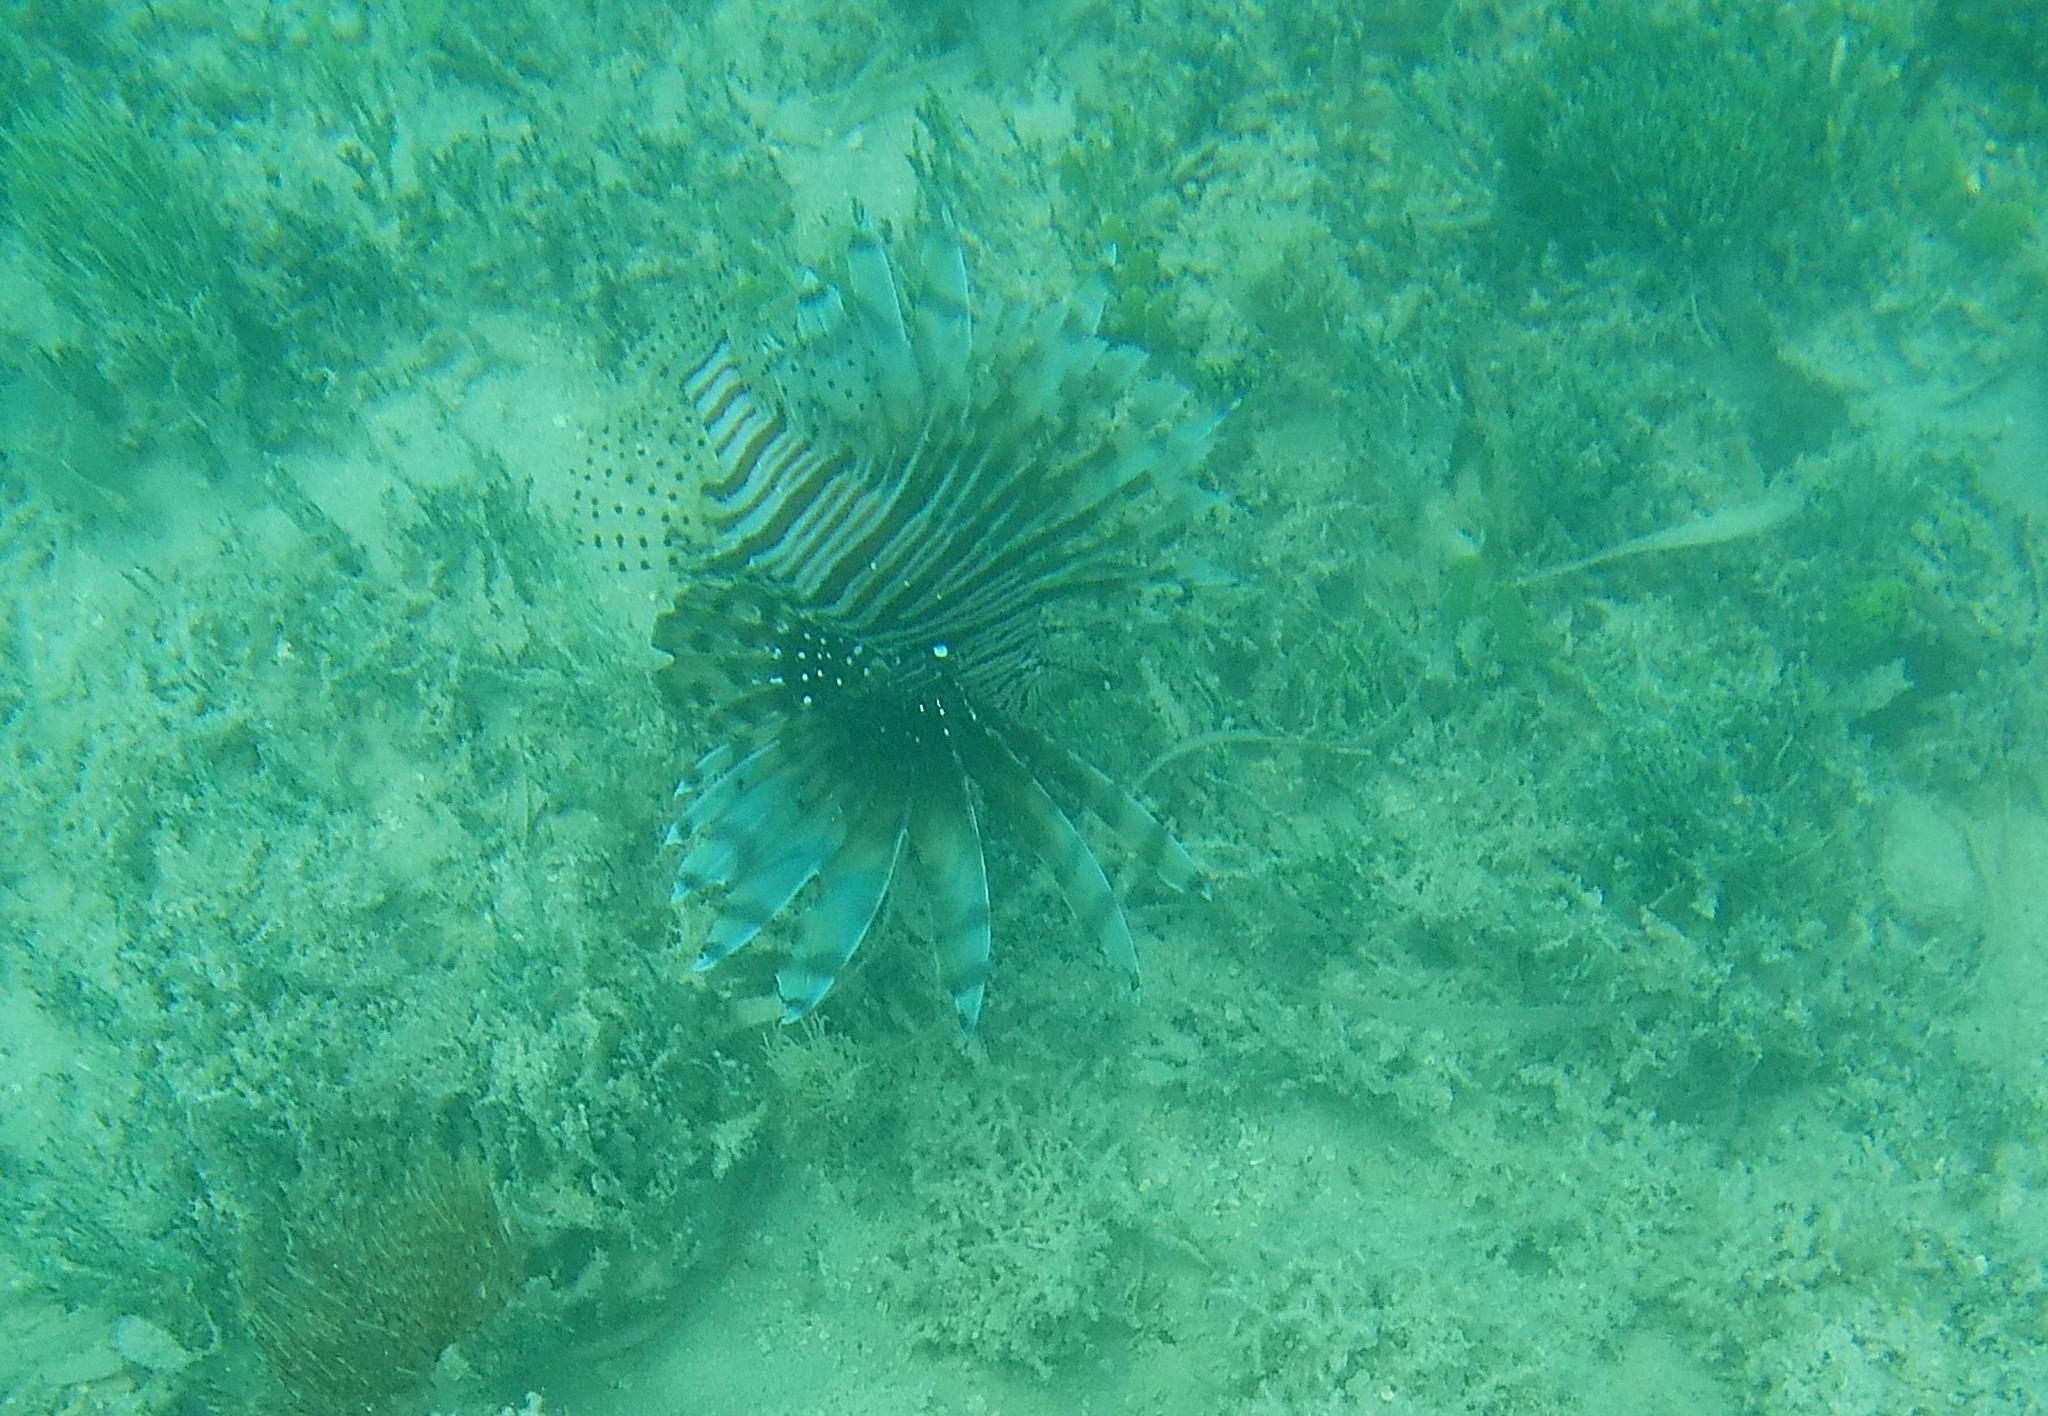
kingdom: Animalia
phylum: Chordata
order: Scorpaeniformes
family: Scorpaenidae
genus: Pterois
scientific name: Pterois volitans
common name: Lionfish
